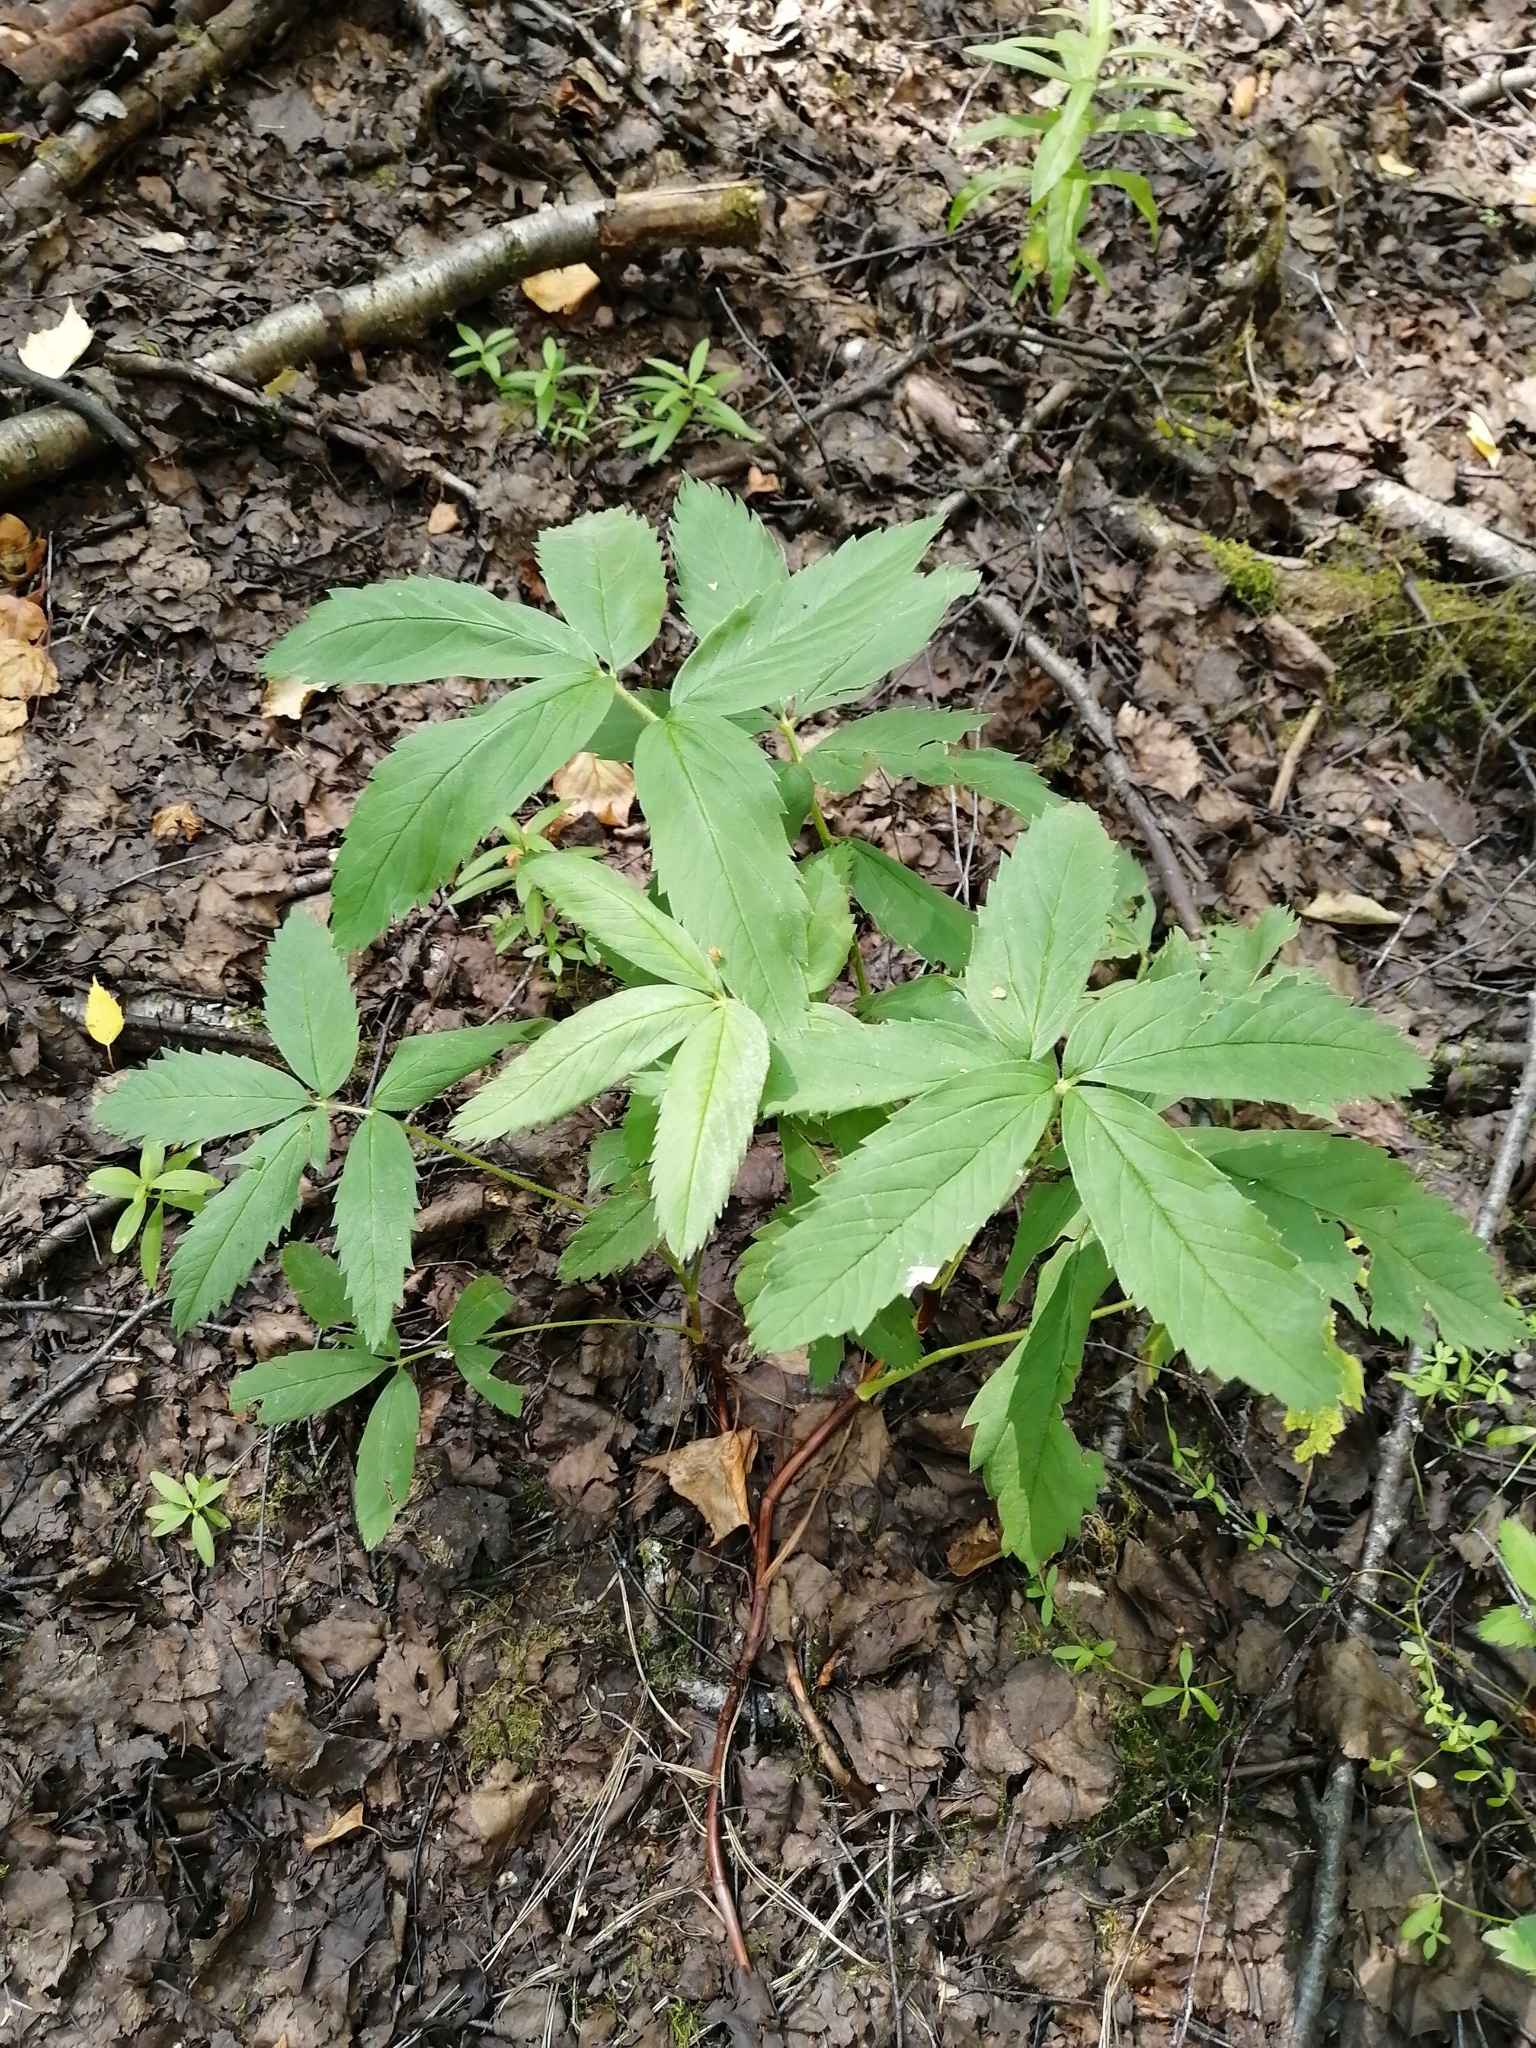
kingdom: Plantae
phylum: Tracheophyta
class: Magnoliopsida
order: Rosales
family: Rosaceae
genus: Comarum
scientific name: Comarum palustre
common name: Marsh cinquefoil
